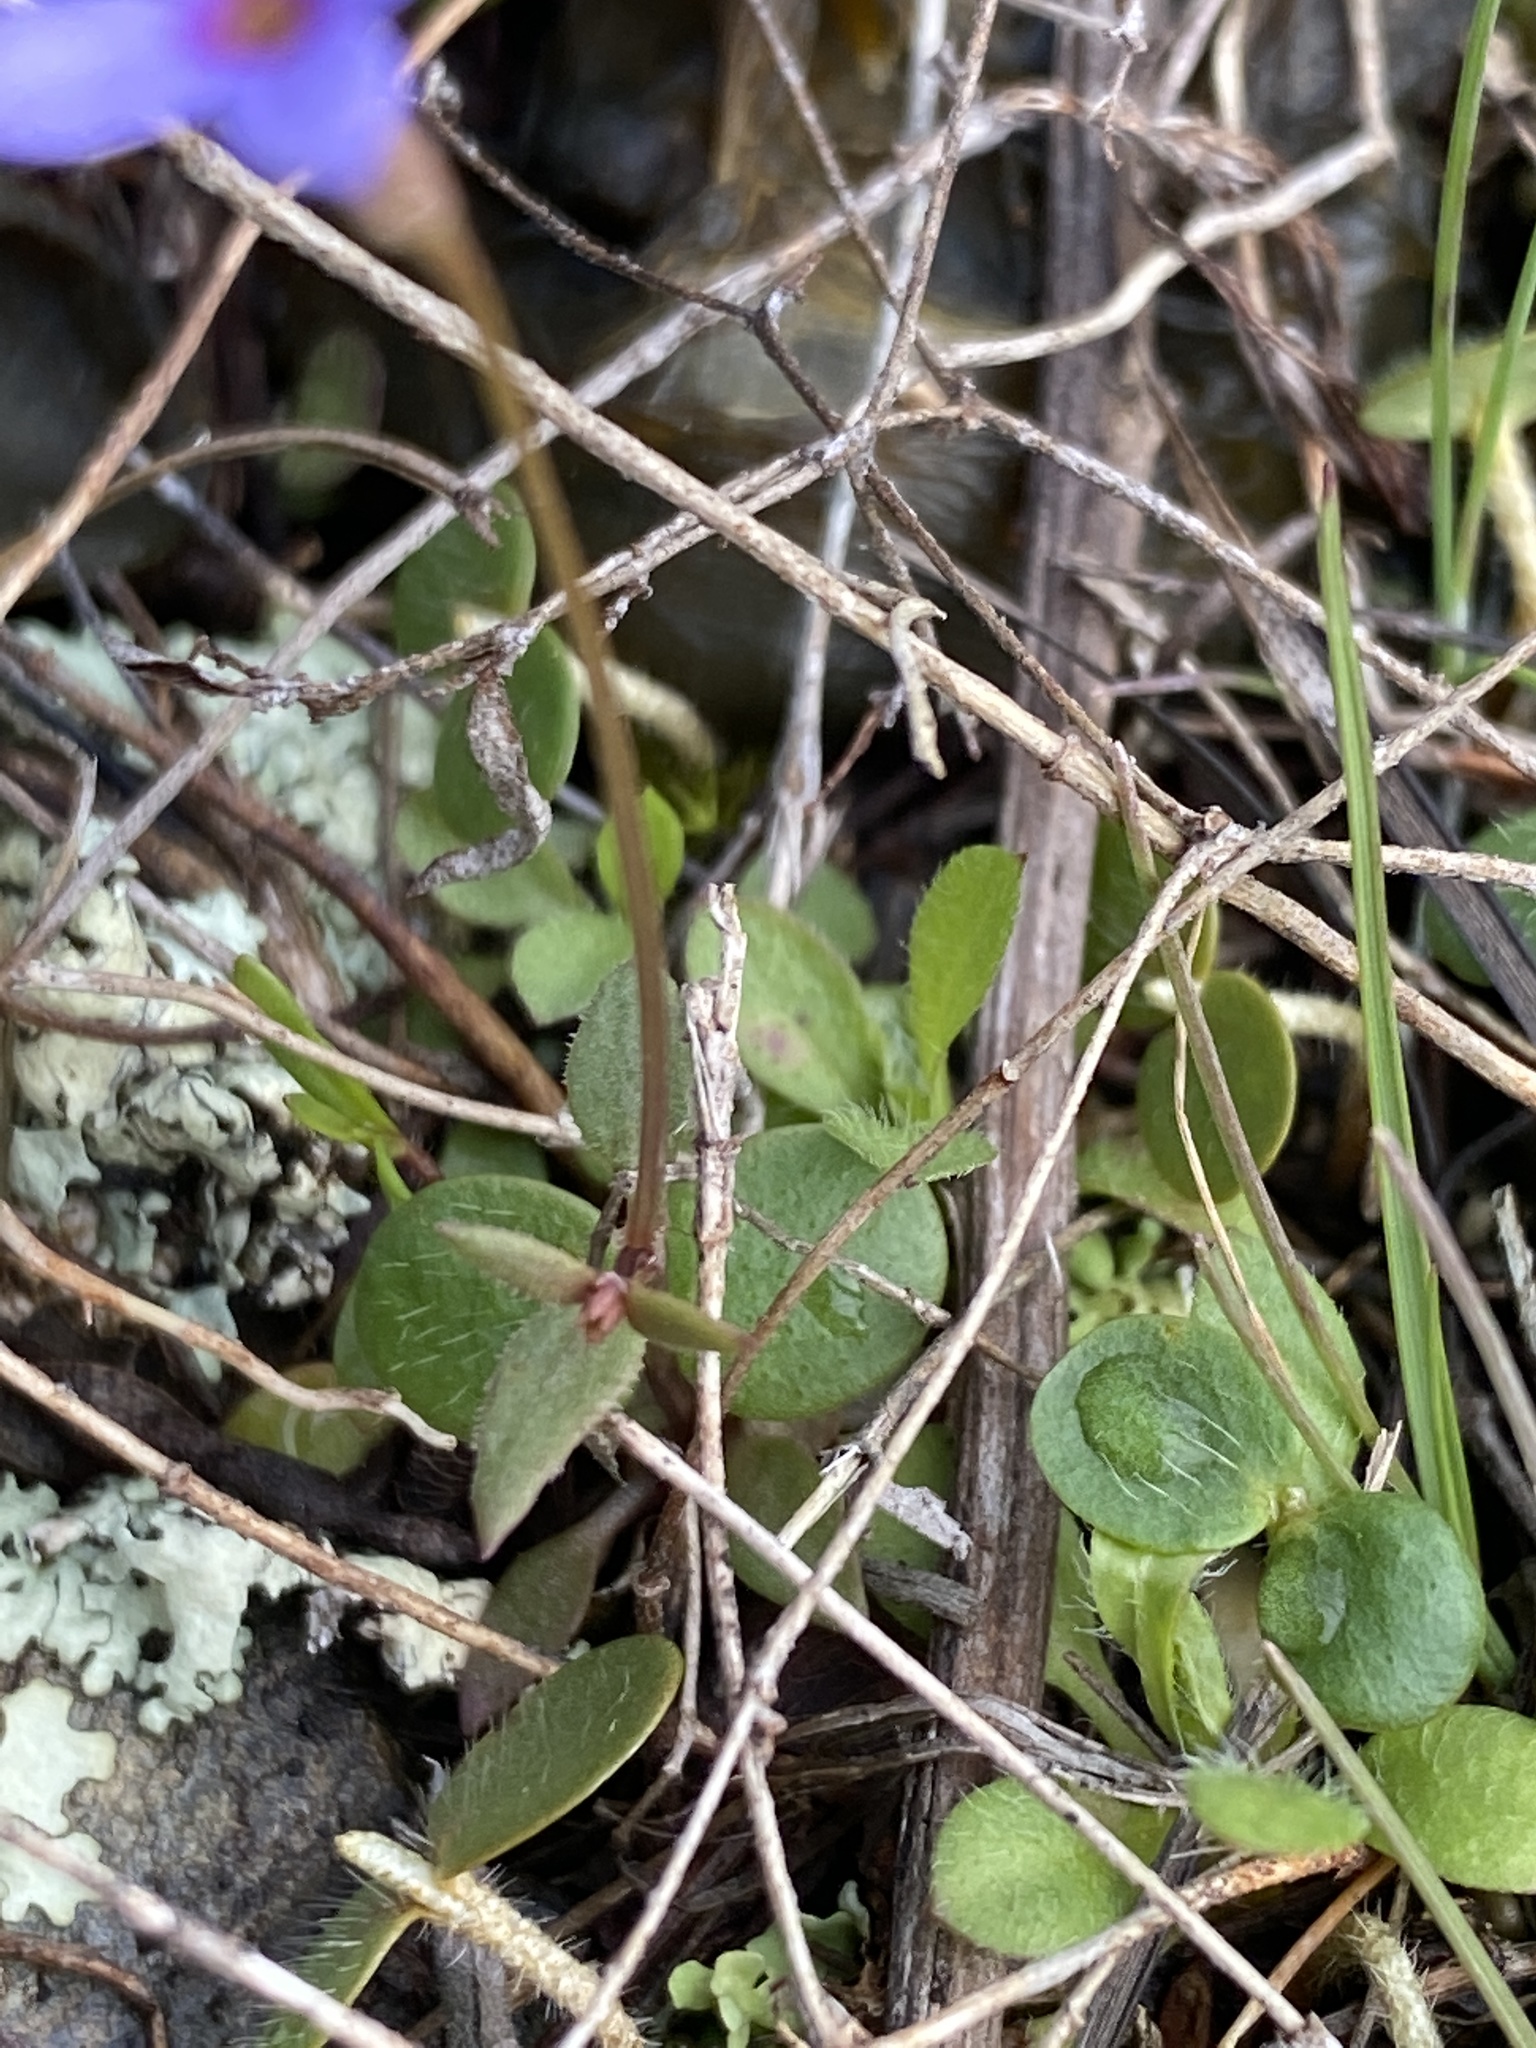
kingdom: Plantae
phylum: Tracheophyta
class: Magnoliopsida
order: Gentianales
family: Rubiaceae
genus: Houstonia
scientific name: Houstonia pusilla
